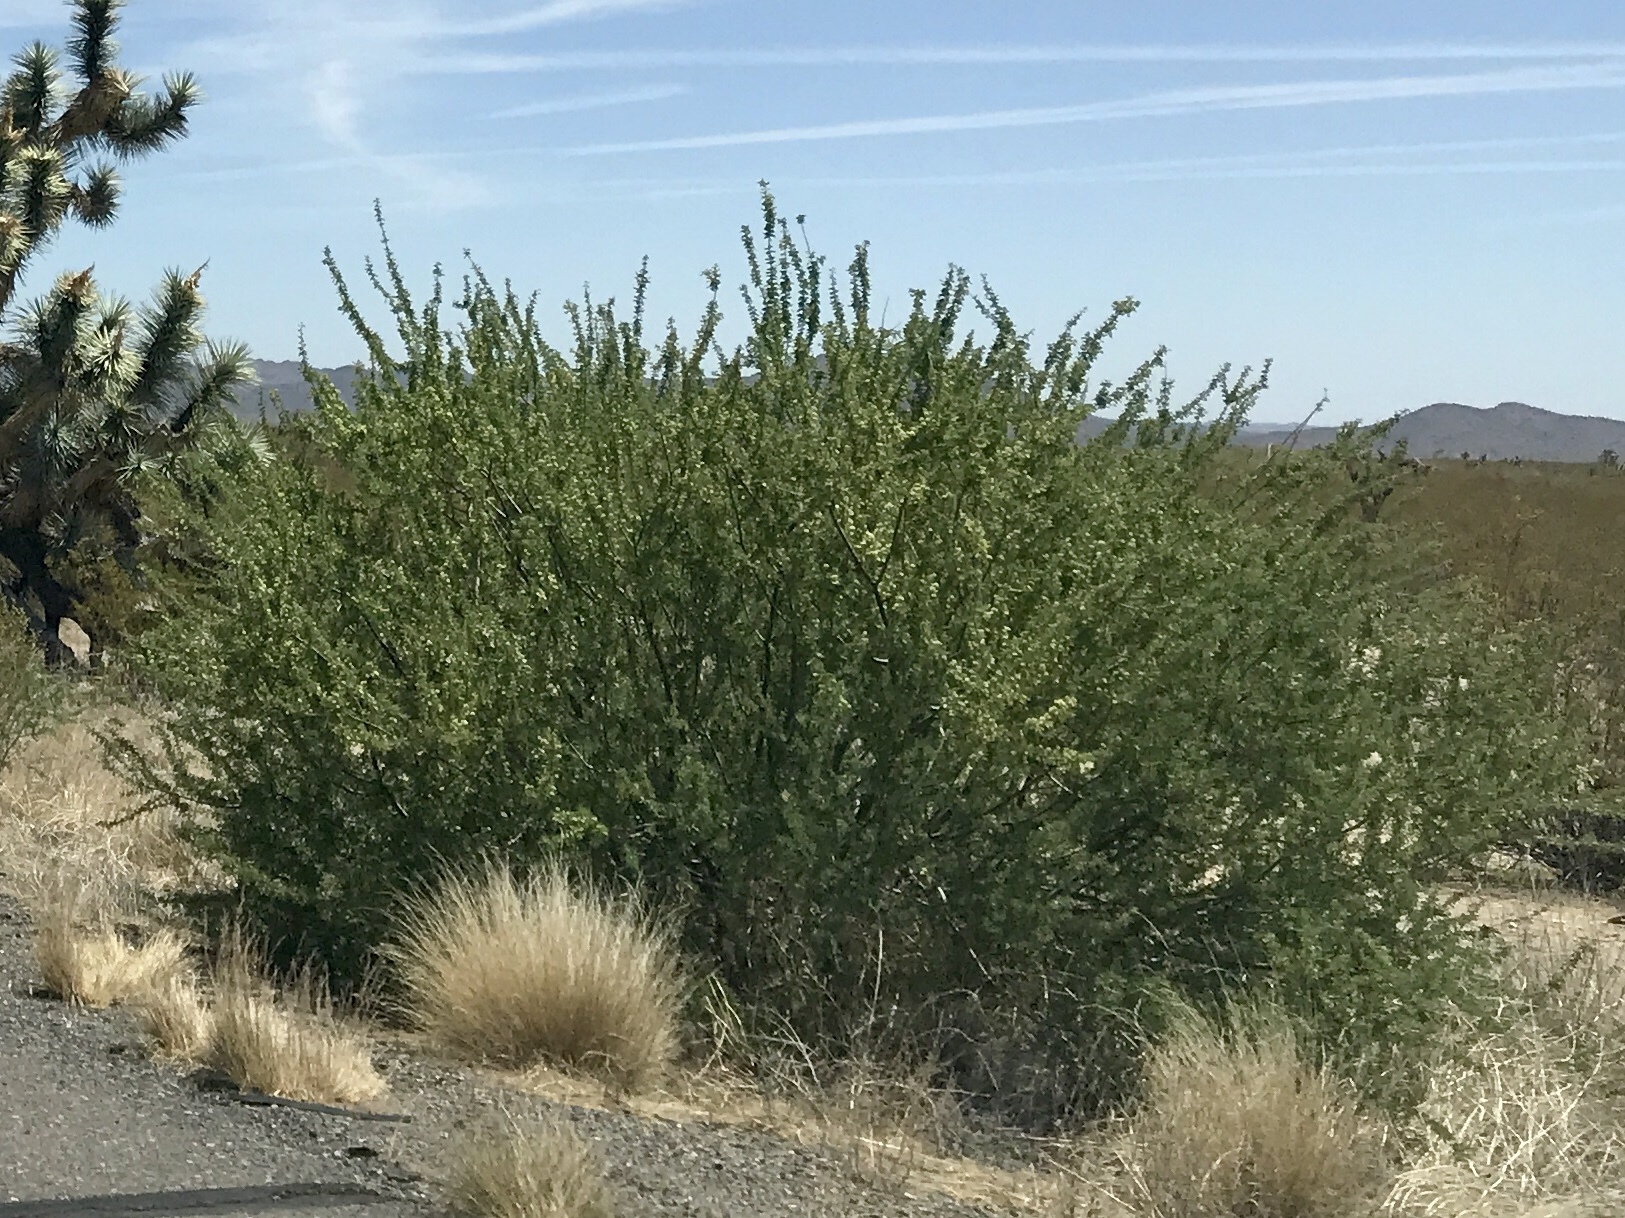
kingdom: Plantae
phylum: Tracheophyta
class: Magnoliopsida
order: Fabales
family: Fabaceae
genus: Senegalia
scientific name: Senegalia greggii
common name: Texas-mimosa
